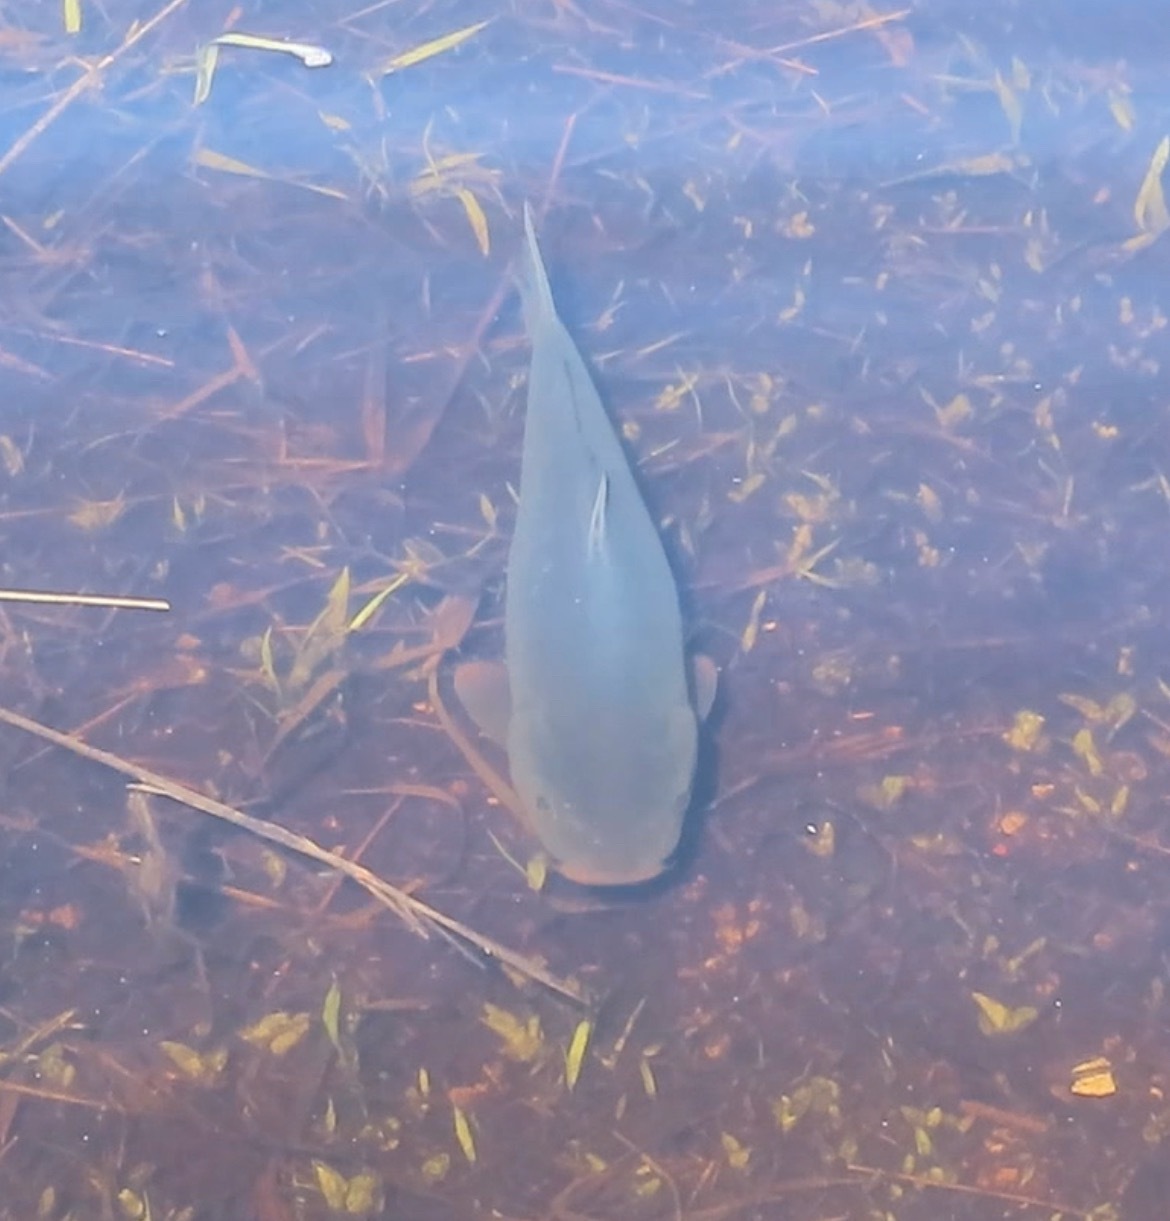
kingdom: Animalia
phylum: Chordata
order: Cypriniformes
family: Cyprinidae
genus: Cyprinus
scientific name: Cyprinus carpio
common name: Common carp
